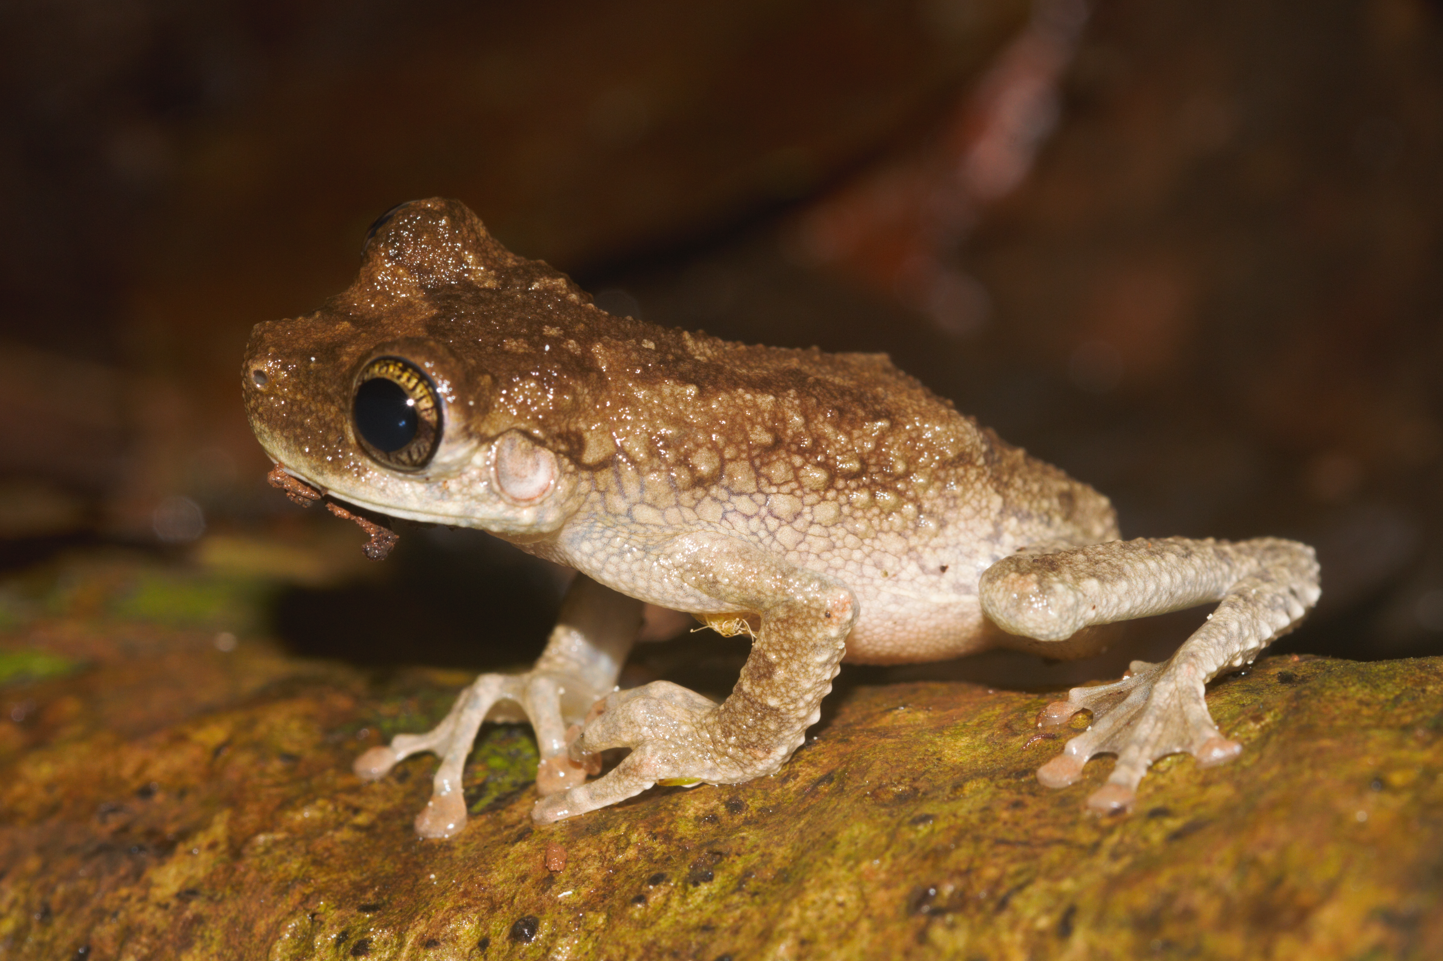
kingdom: Animalia
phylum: Chordata
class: Amphibia
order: Anura
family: Hylidae
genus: Osteocephalus
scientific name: Osteocephalus oophagus
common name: Oophagous slender-legged treefrog
